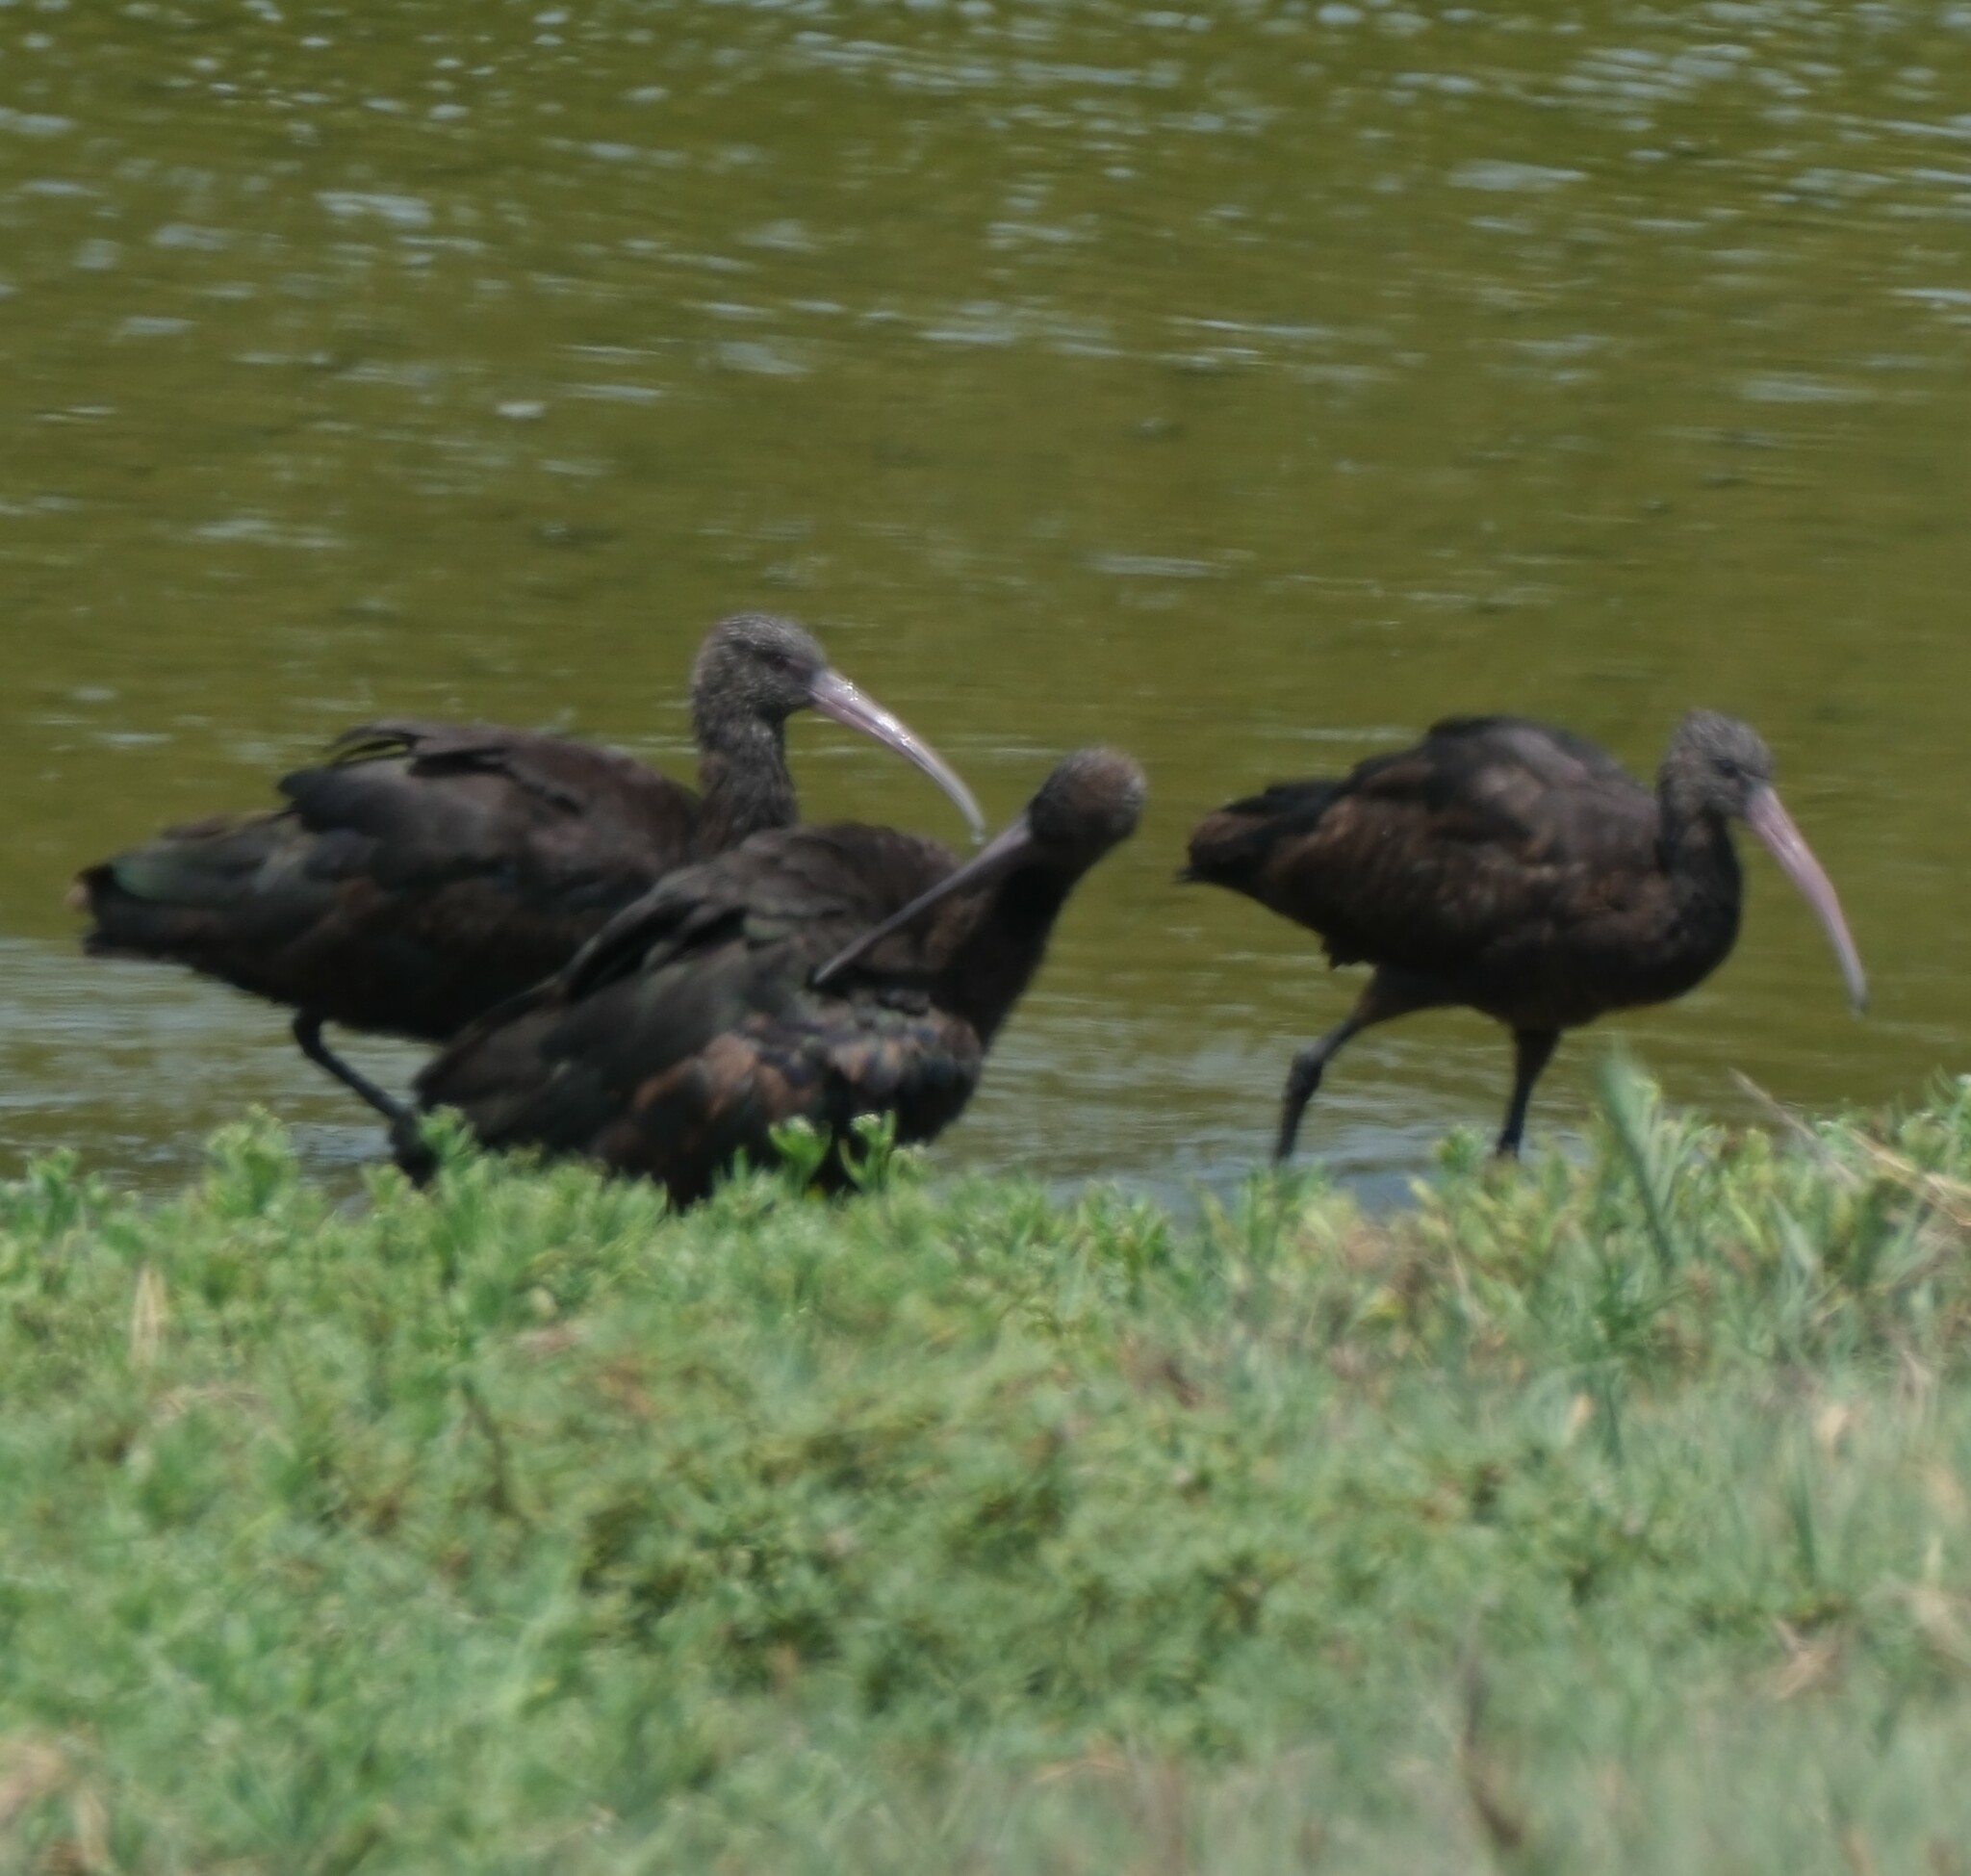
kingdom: Animalia
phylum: Chordata
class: Aves
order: Pelecaniformes
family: Threskiornithidae
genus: Plegadis
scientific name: Plegadis ridgwayi
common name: Puna ibis
